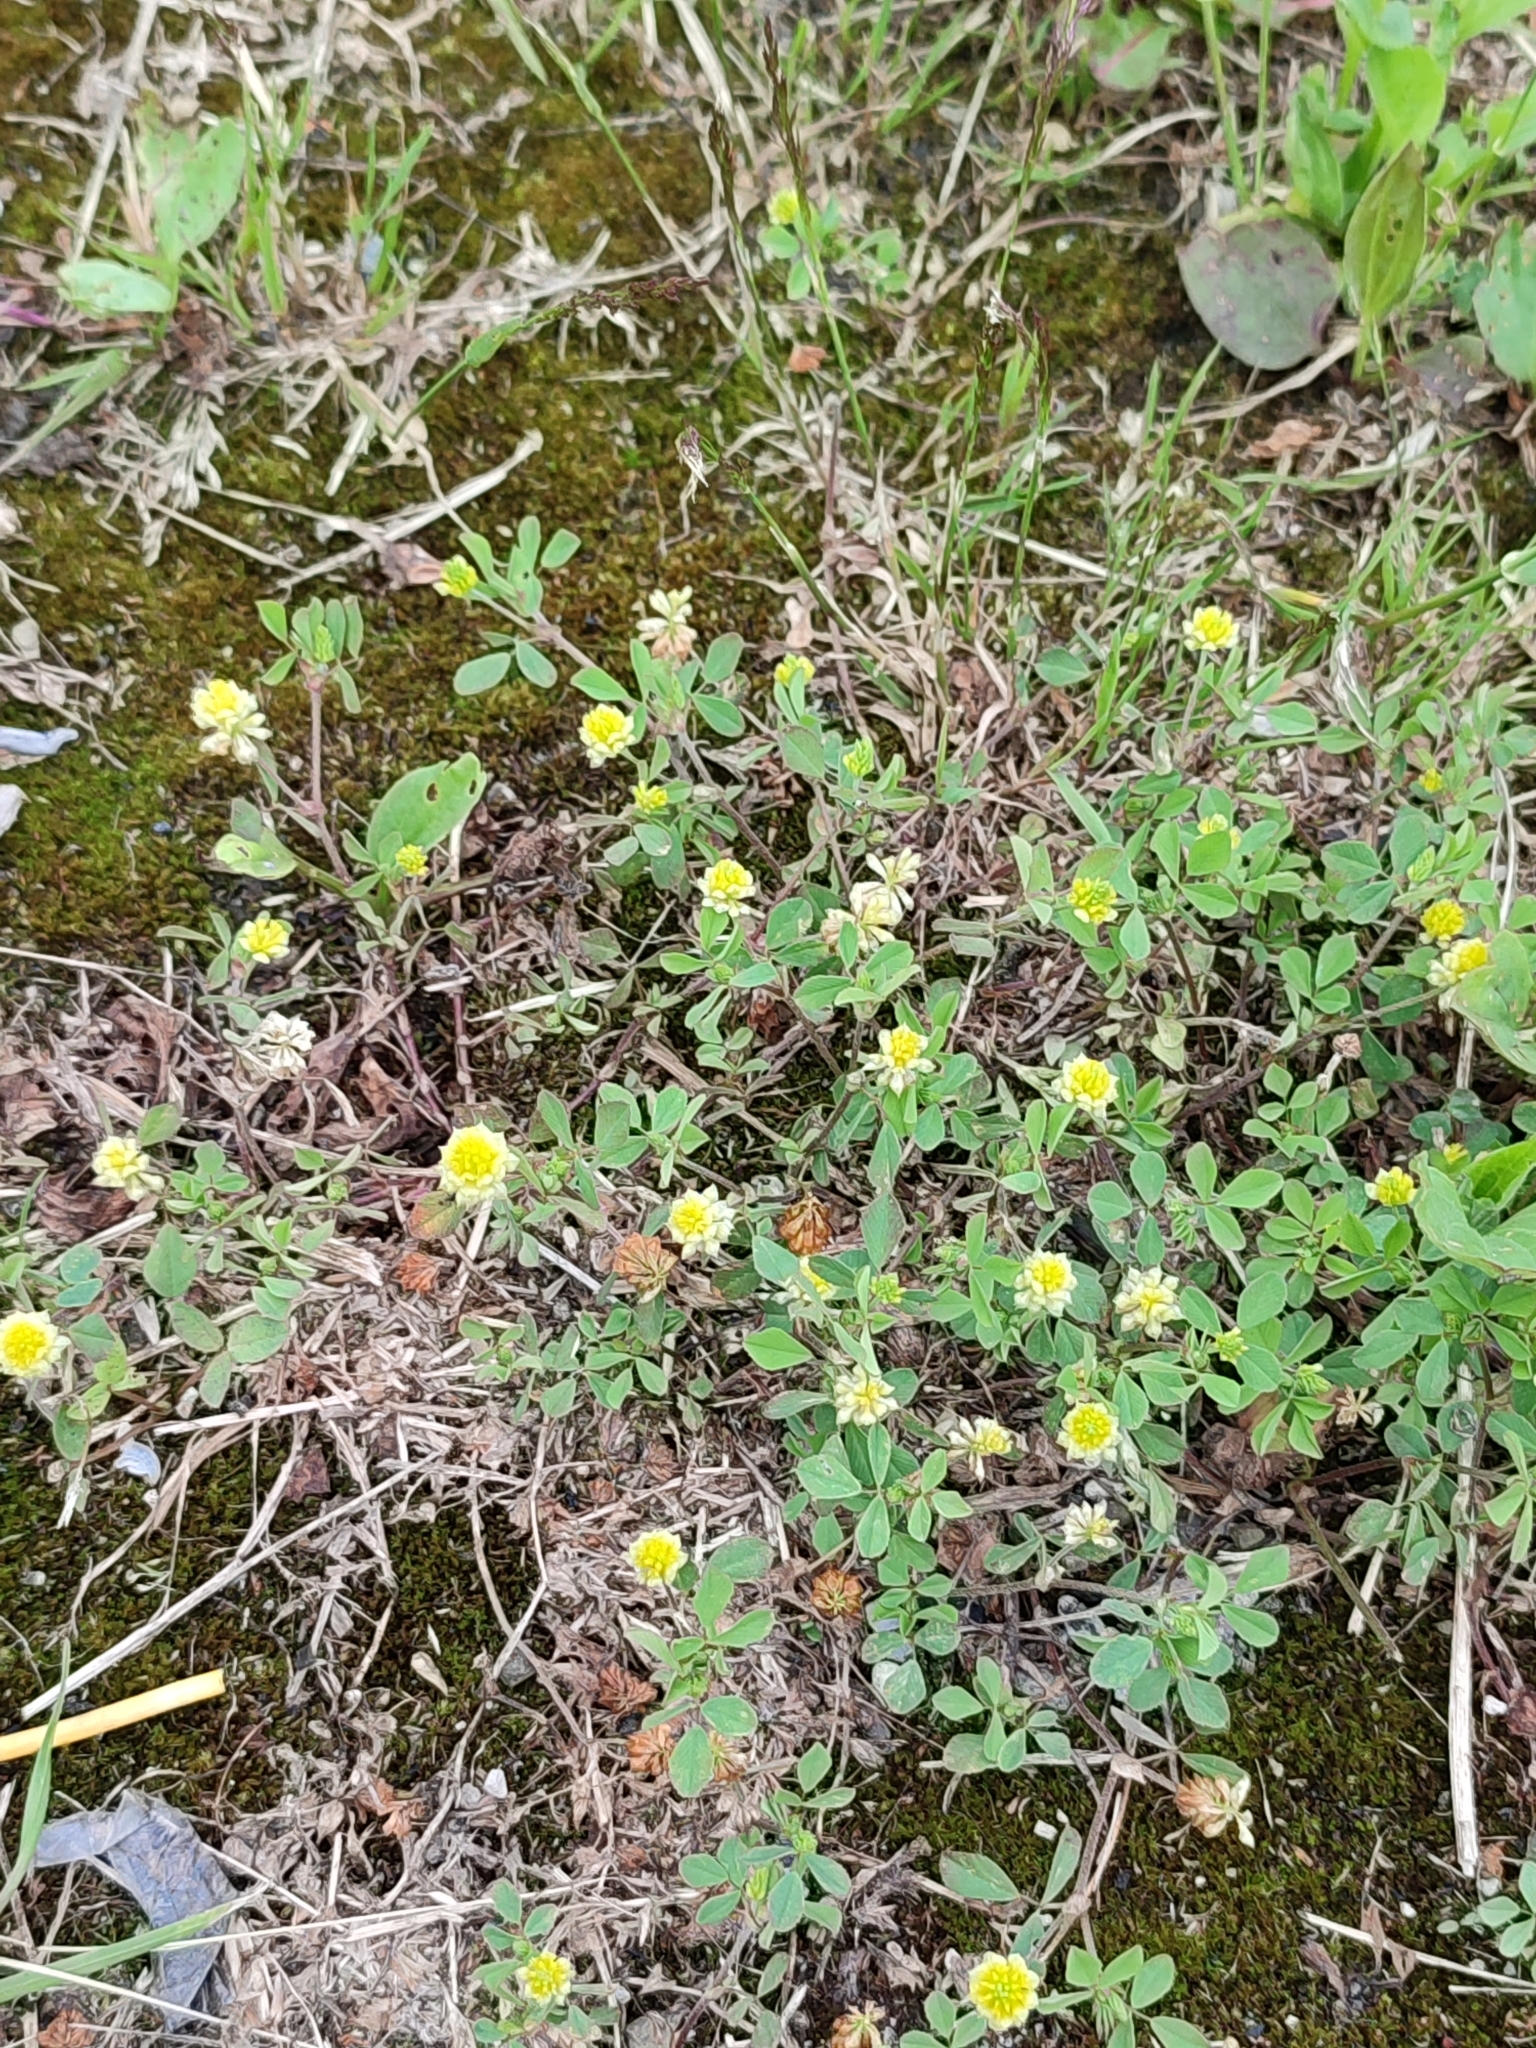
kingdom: Plantae
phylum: Tracheophyta
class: Magnoliopsida
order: Fabales
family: Fabaceae
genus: Trifolium
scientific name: Trifolium campestre
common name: Field clover
